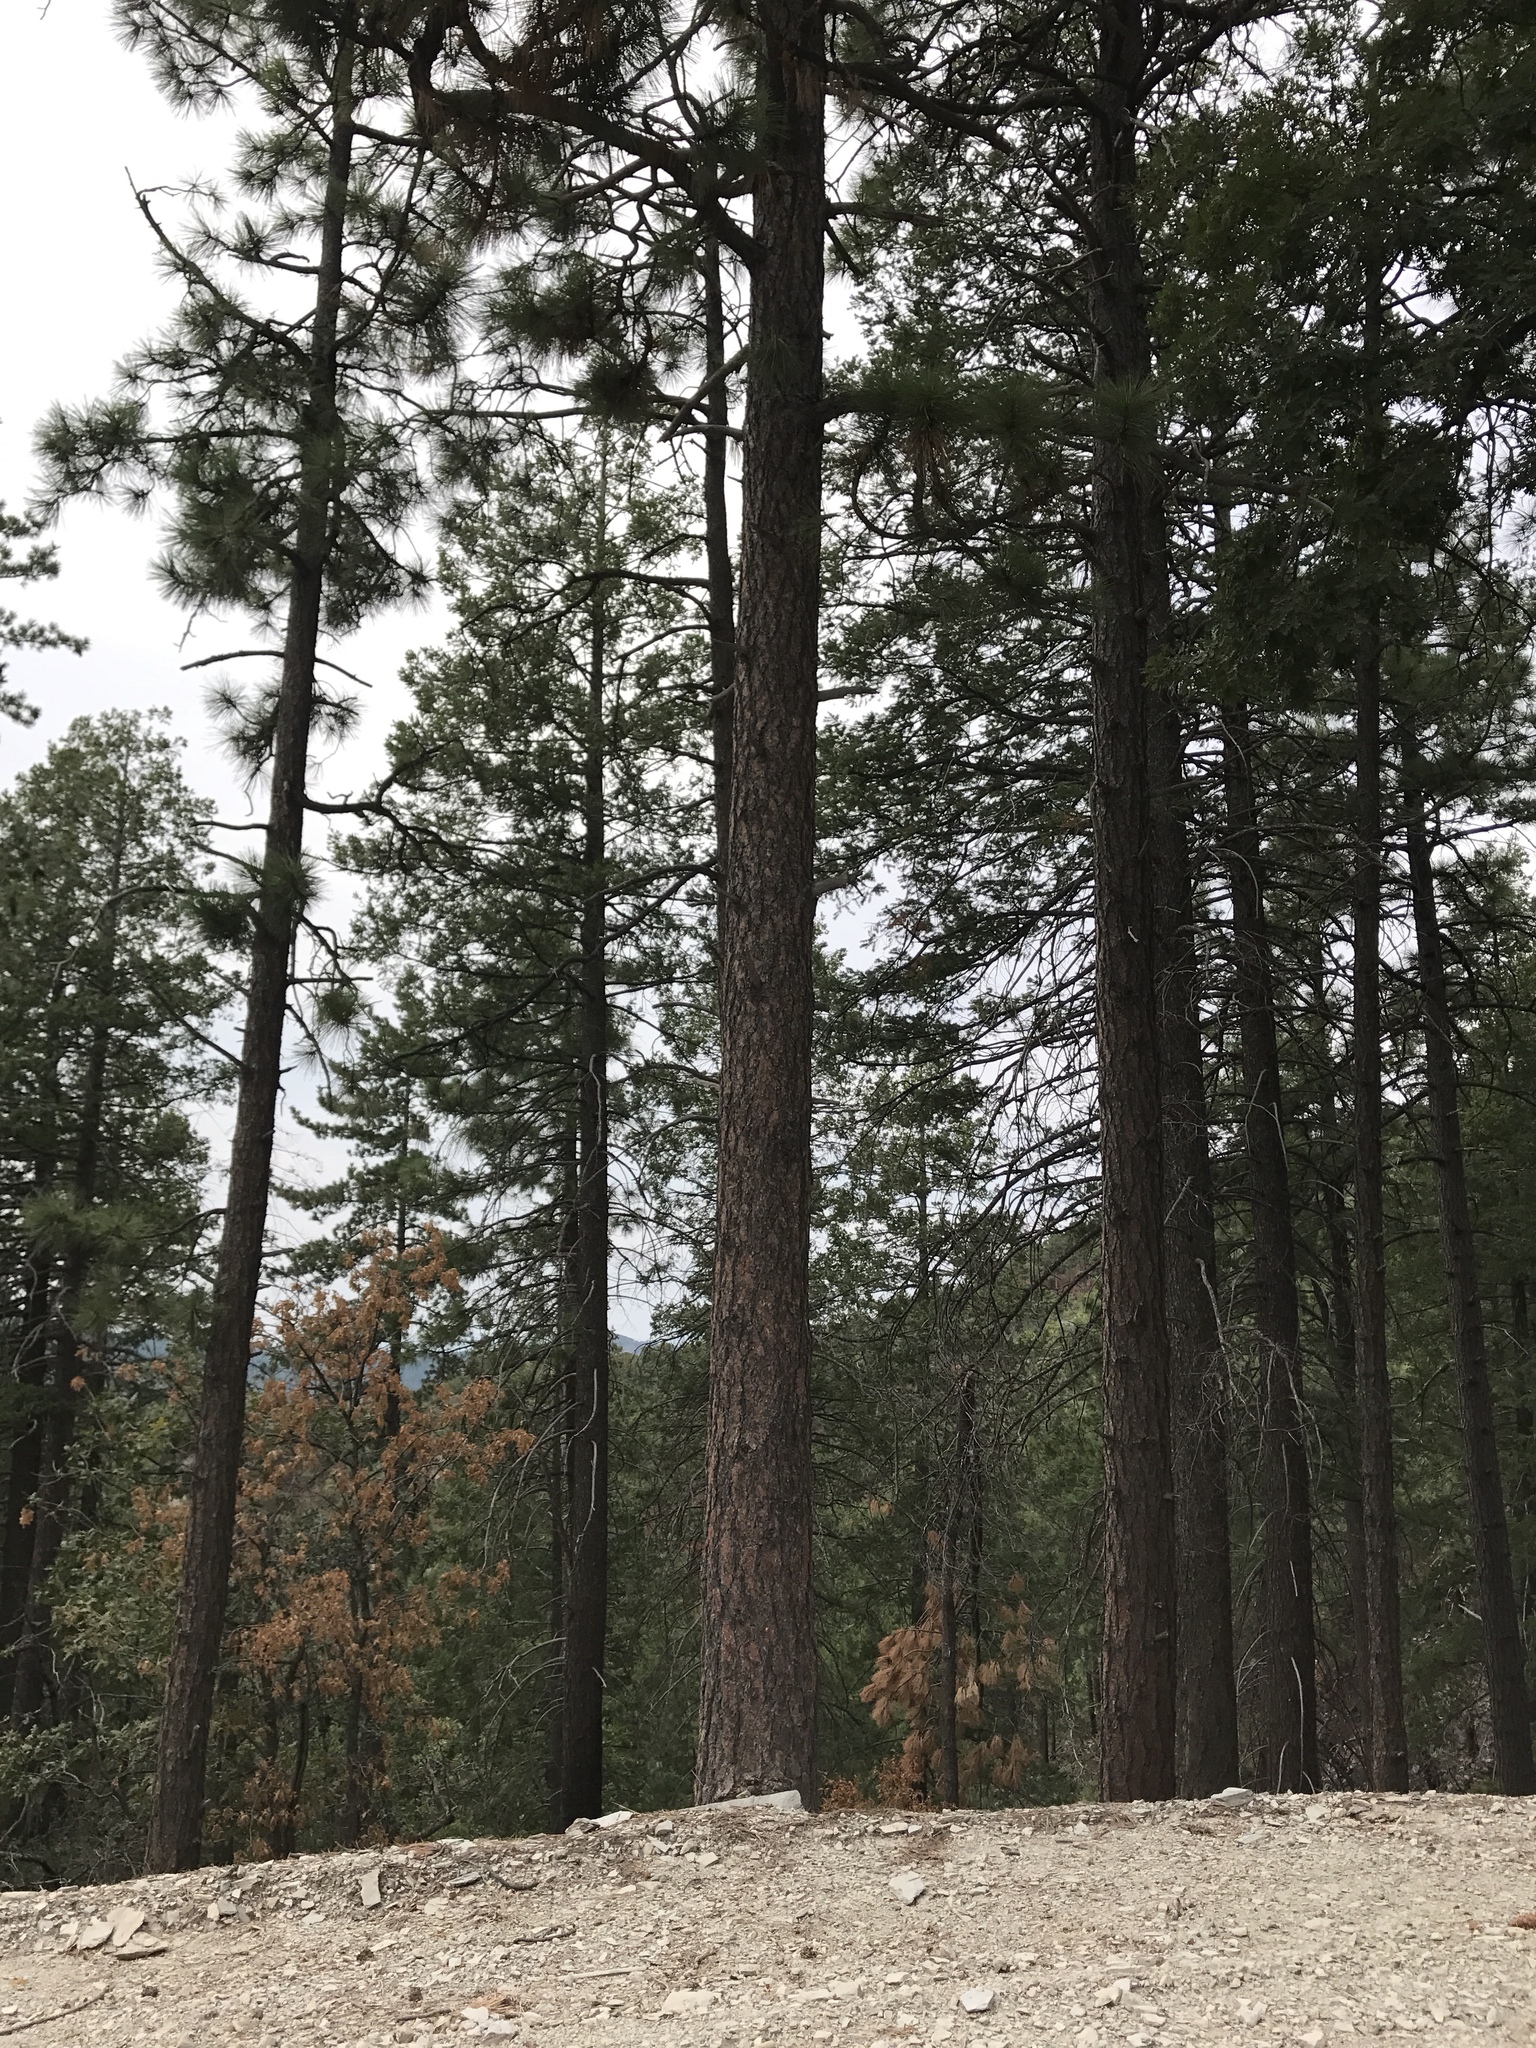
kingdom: Plantae
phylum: Tracheophyta
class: Pinopsida
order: Pinales
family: Pinaceae
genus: Pinus
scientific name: Pinus ponderosa
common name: Western yellow-pine
